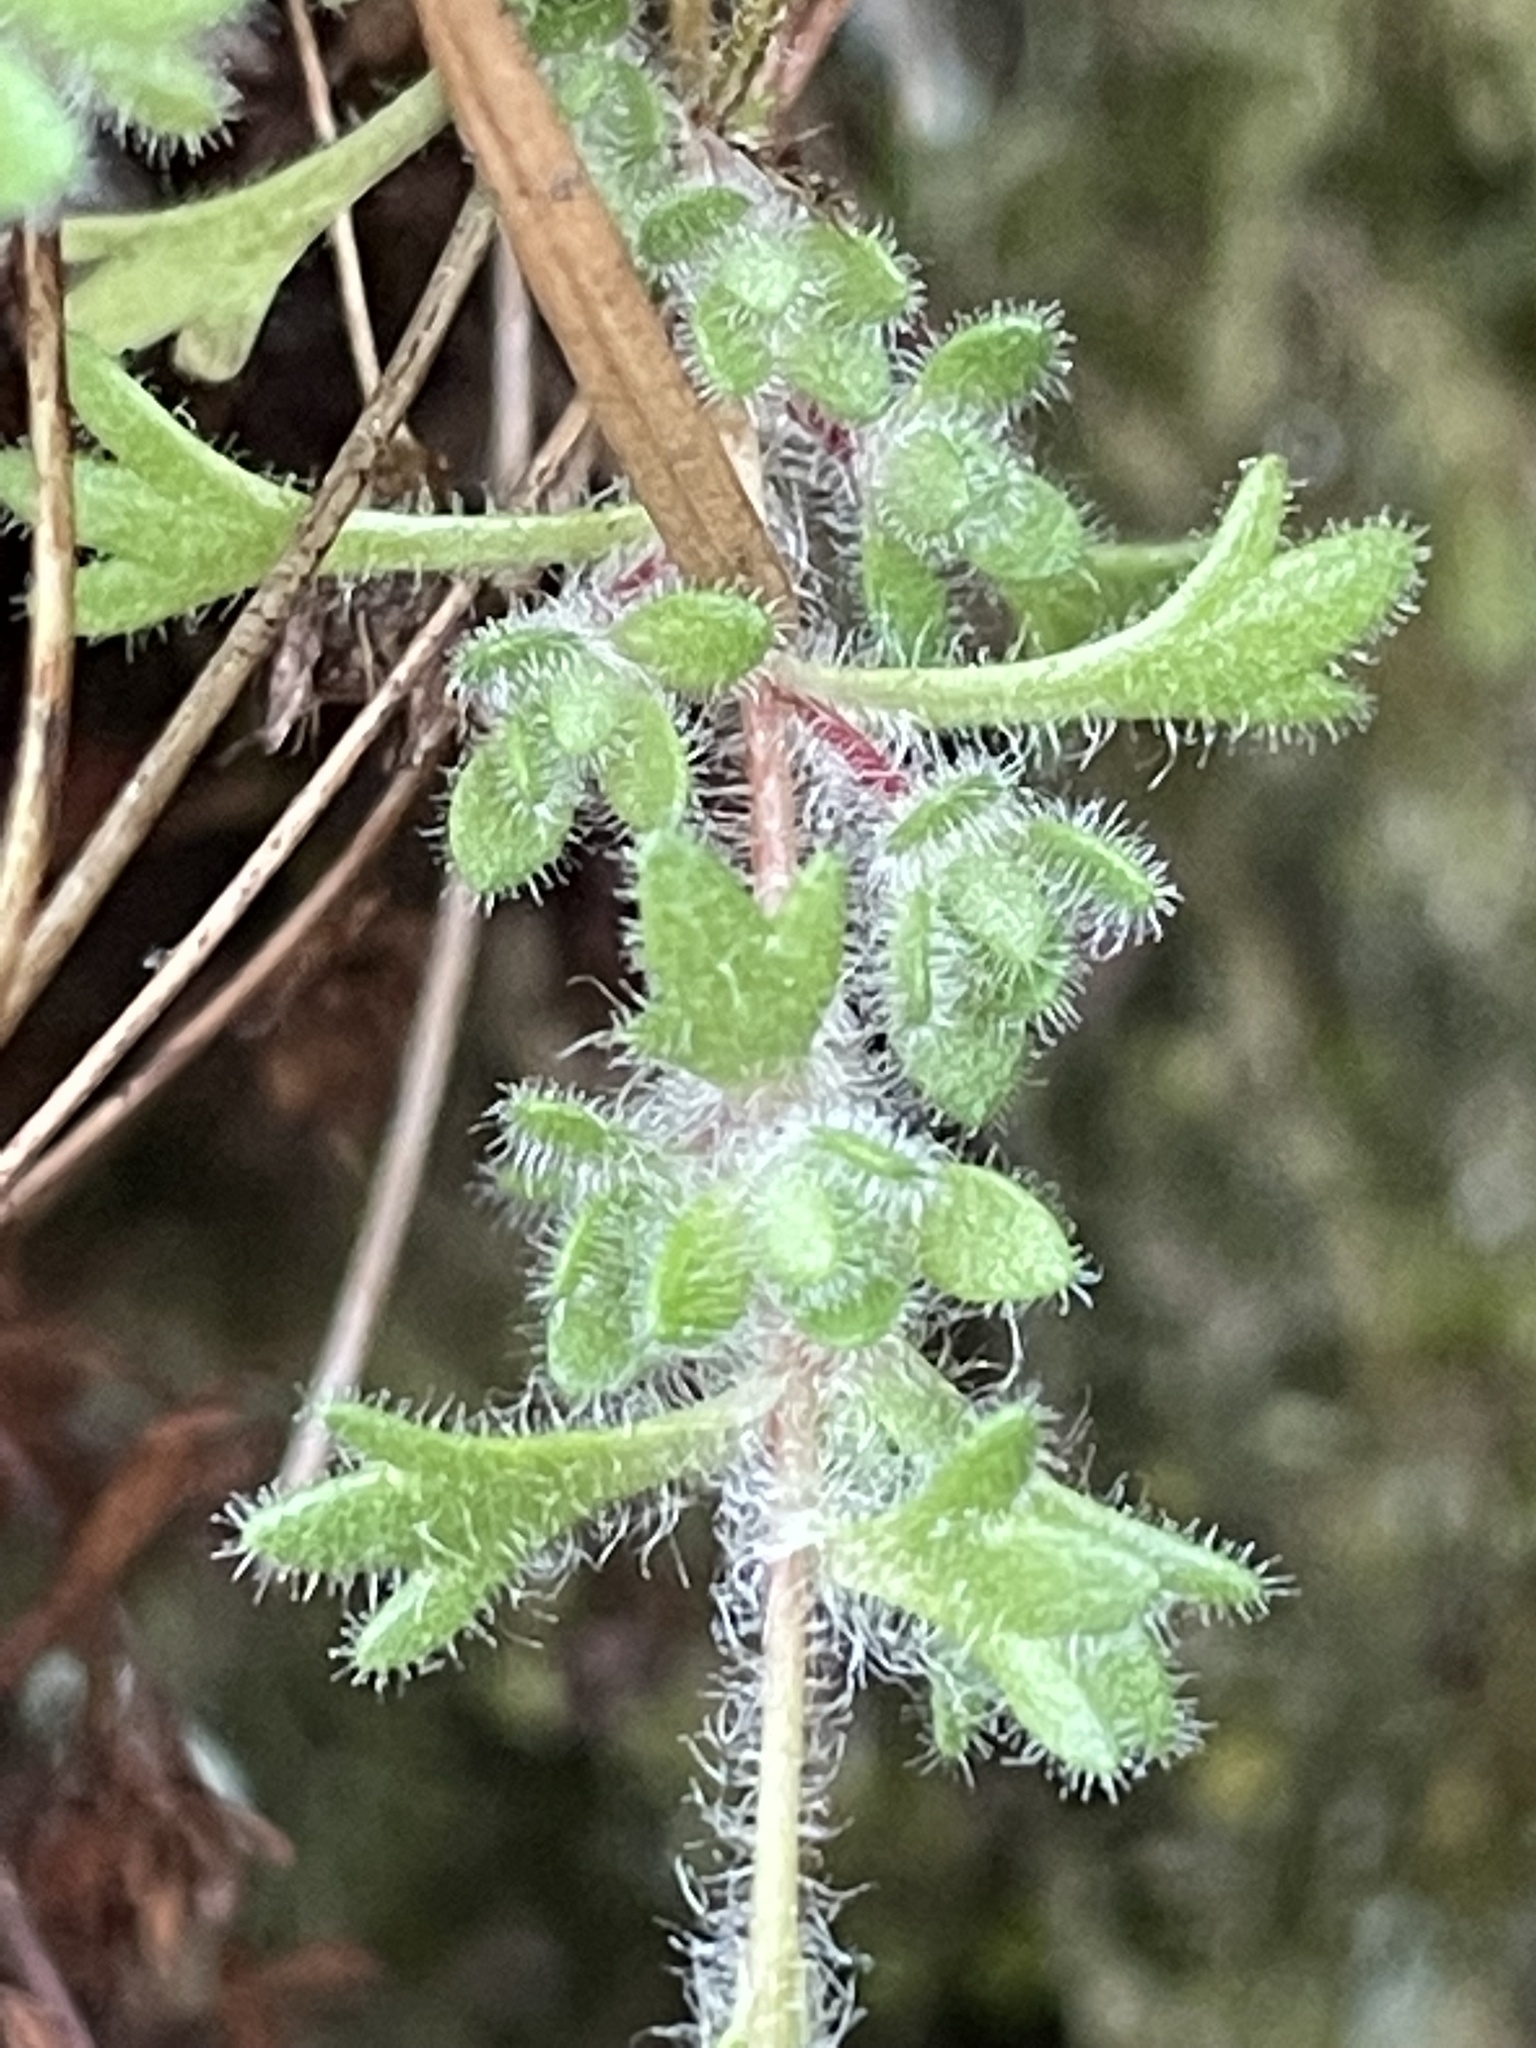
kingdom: Plantae
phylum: Tracheophyta
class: Magnoliopsida
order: Saxifragales
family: Saxifragaceae
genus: Saxifraga
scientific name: Saxifraga cespitosa
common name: Tufted saxifrage
